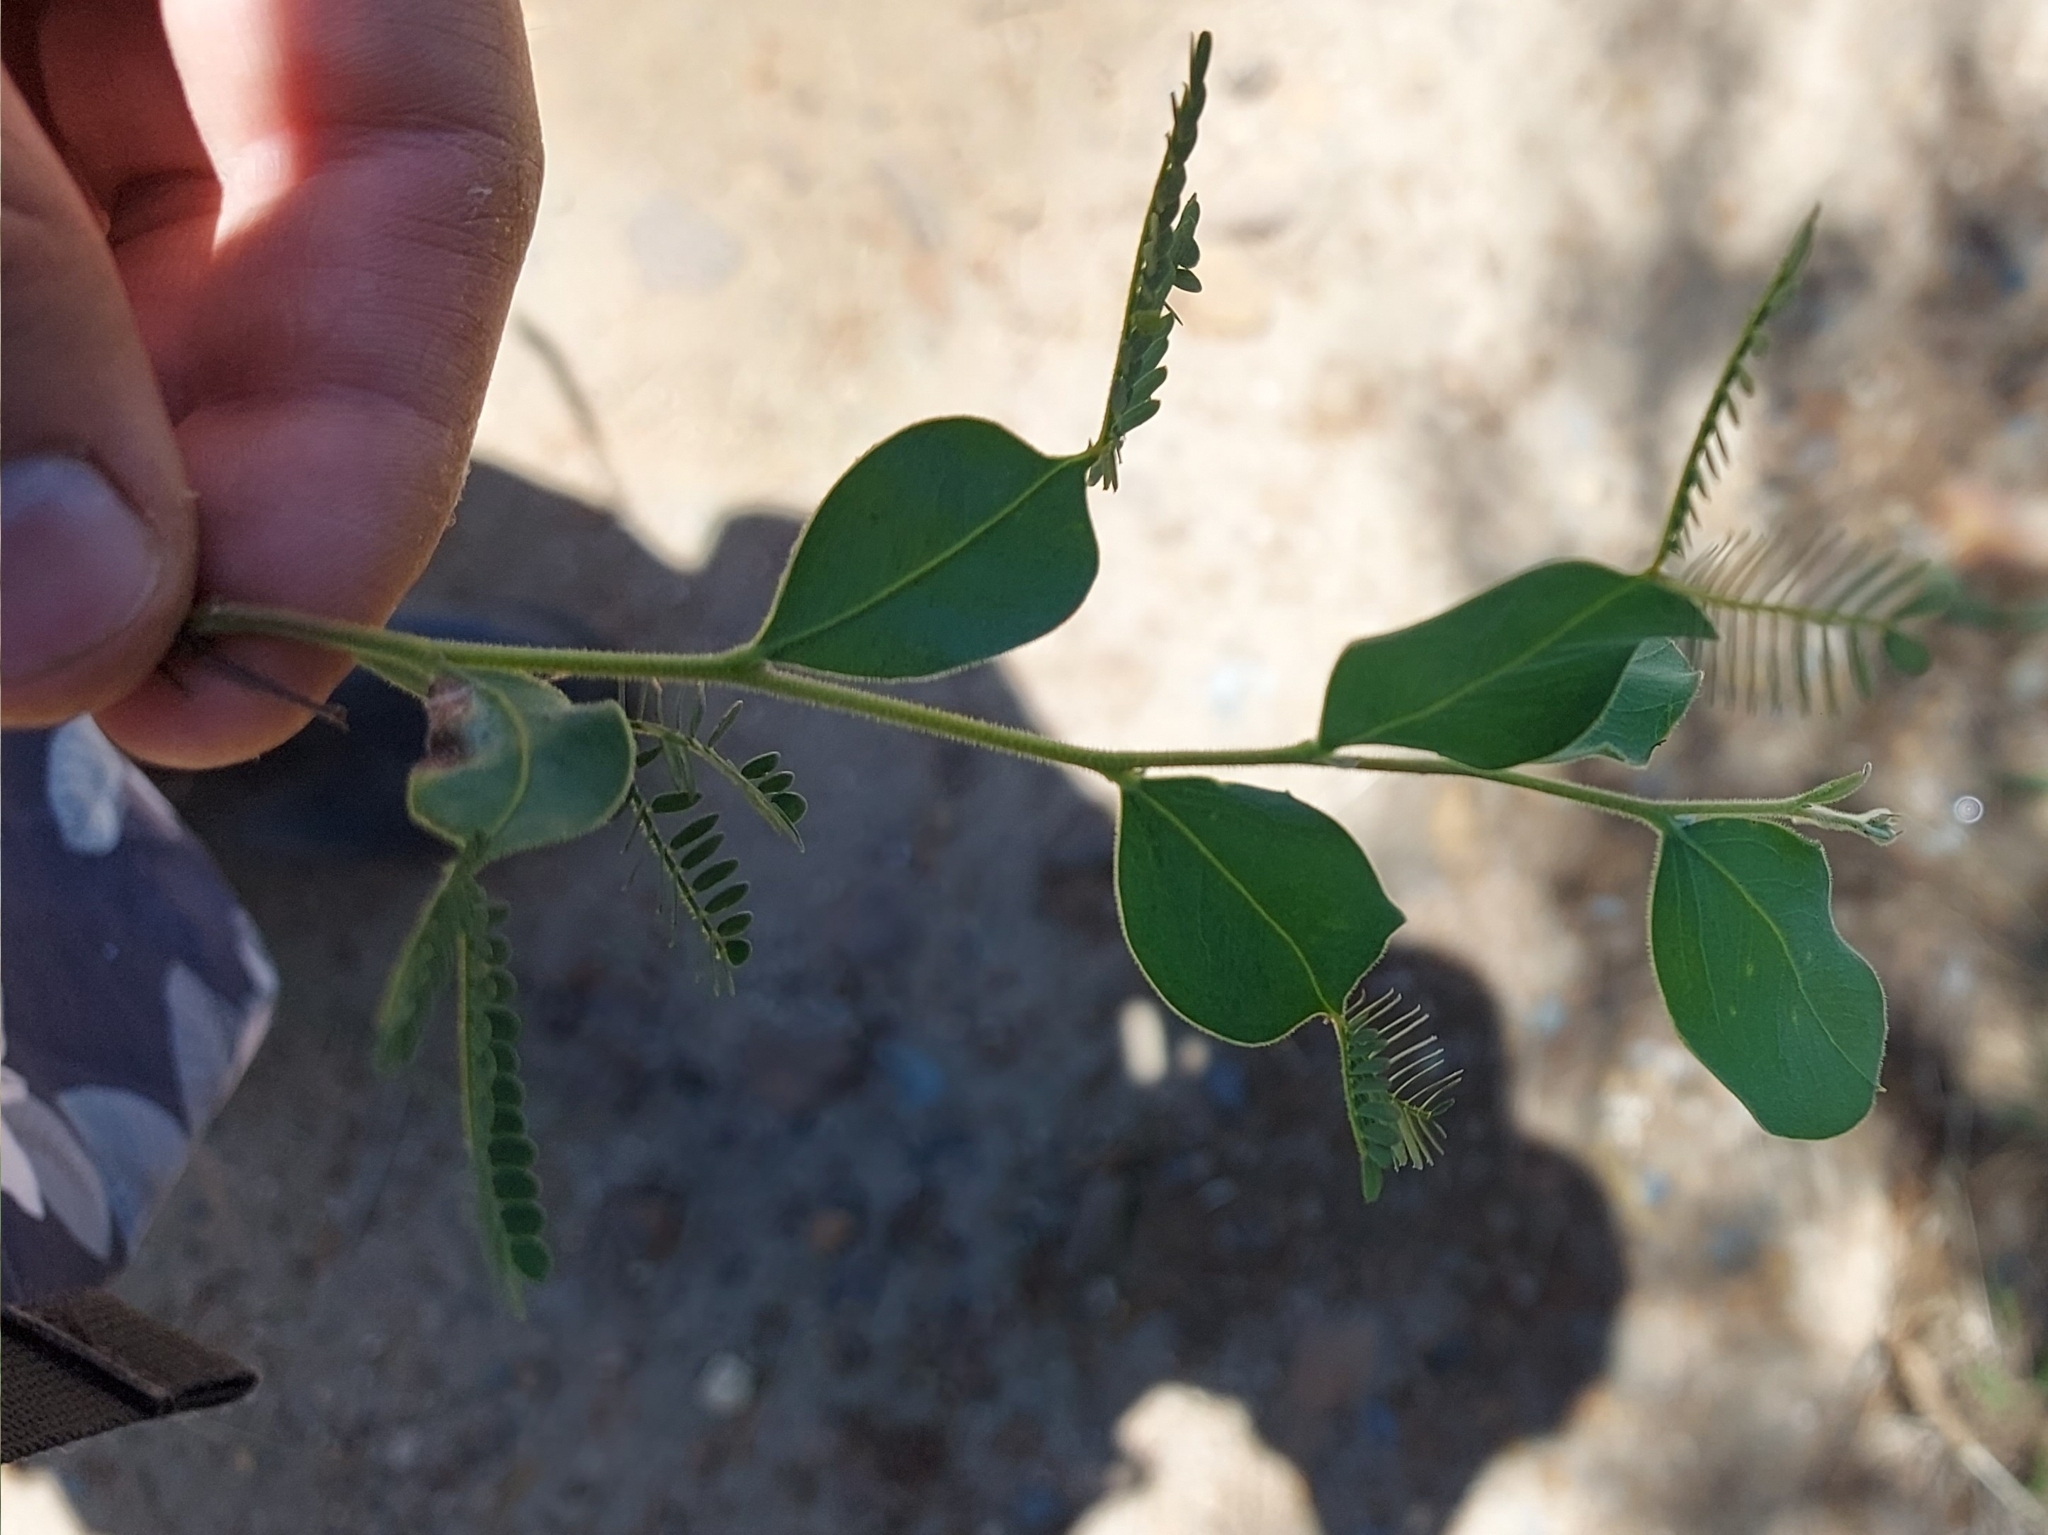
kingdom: Plantae
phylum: Tracheophyta
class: Magnoliopsida
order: Fabales
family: Fabaceae
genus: Acacia
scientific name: Acacia podalyriifolia
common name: Pearl wattle
